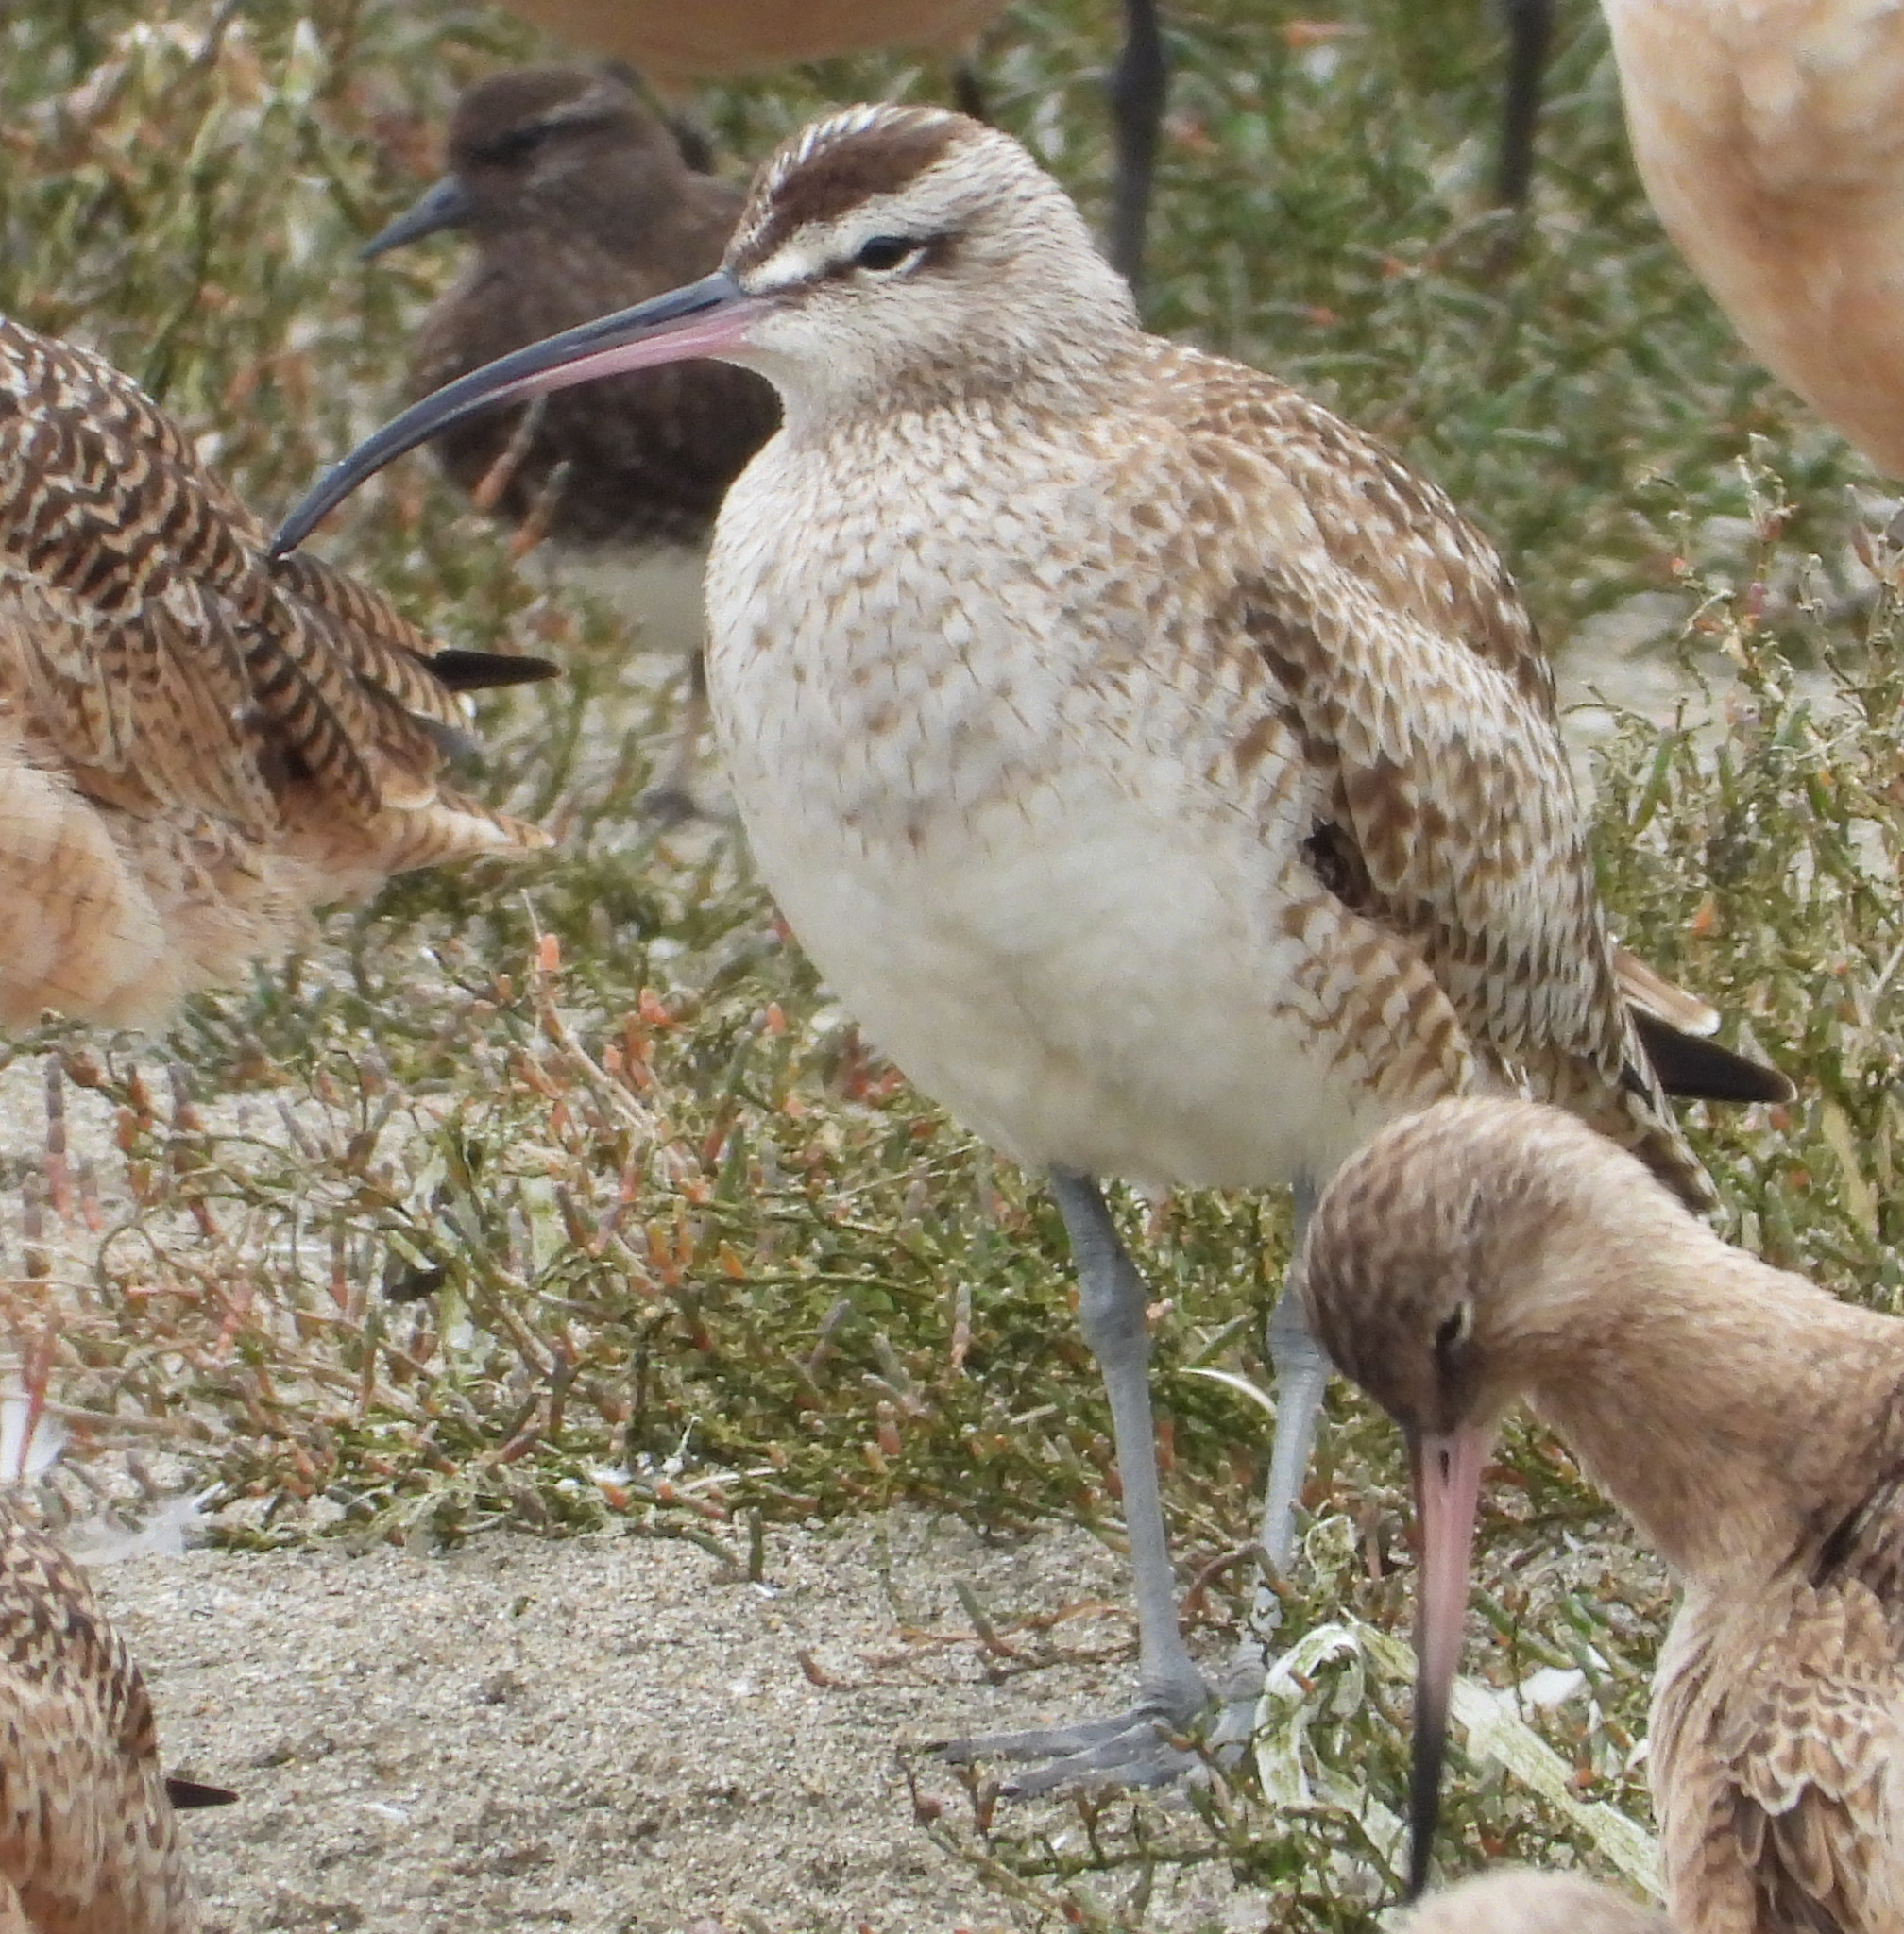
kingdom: Animalia
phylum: Chordata
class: Aves
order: Charadriiformes
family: Scolopacidae
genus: Numenius
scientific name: Numenius phaeopus
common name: Whimbrel
